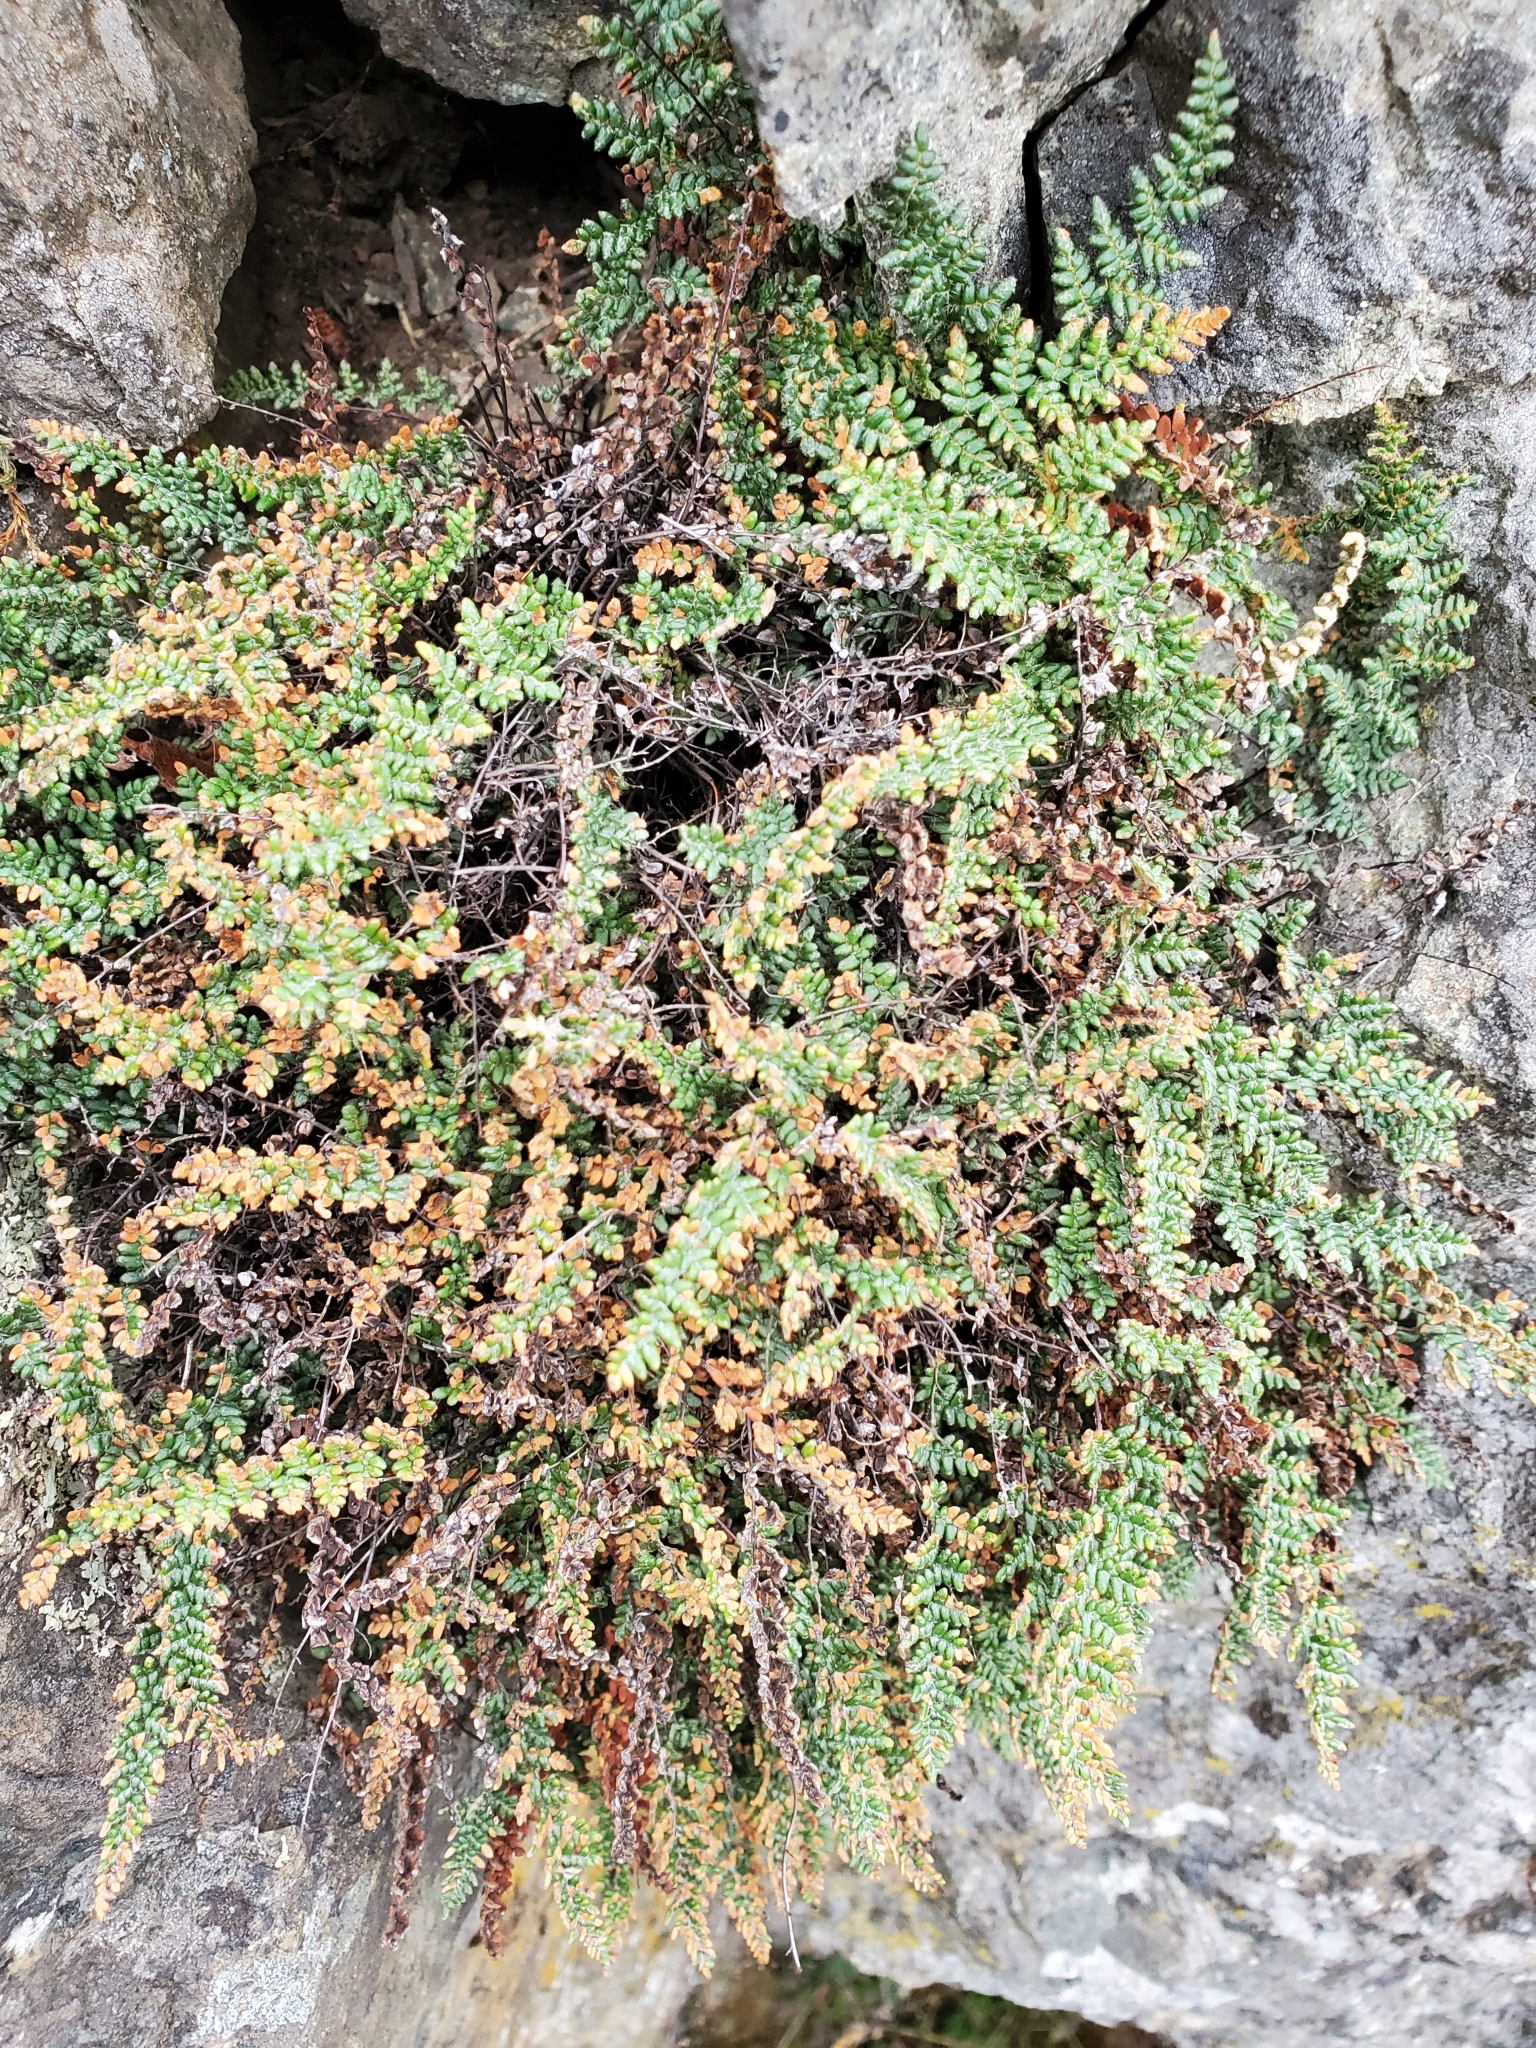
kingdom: Plantae
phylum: Tracheophyta
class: Polypodiopsida
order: Polypodiales
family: Pteridaceae
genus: Myriopteris
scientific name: Myriopteris gracillima
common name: Lace fern
